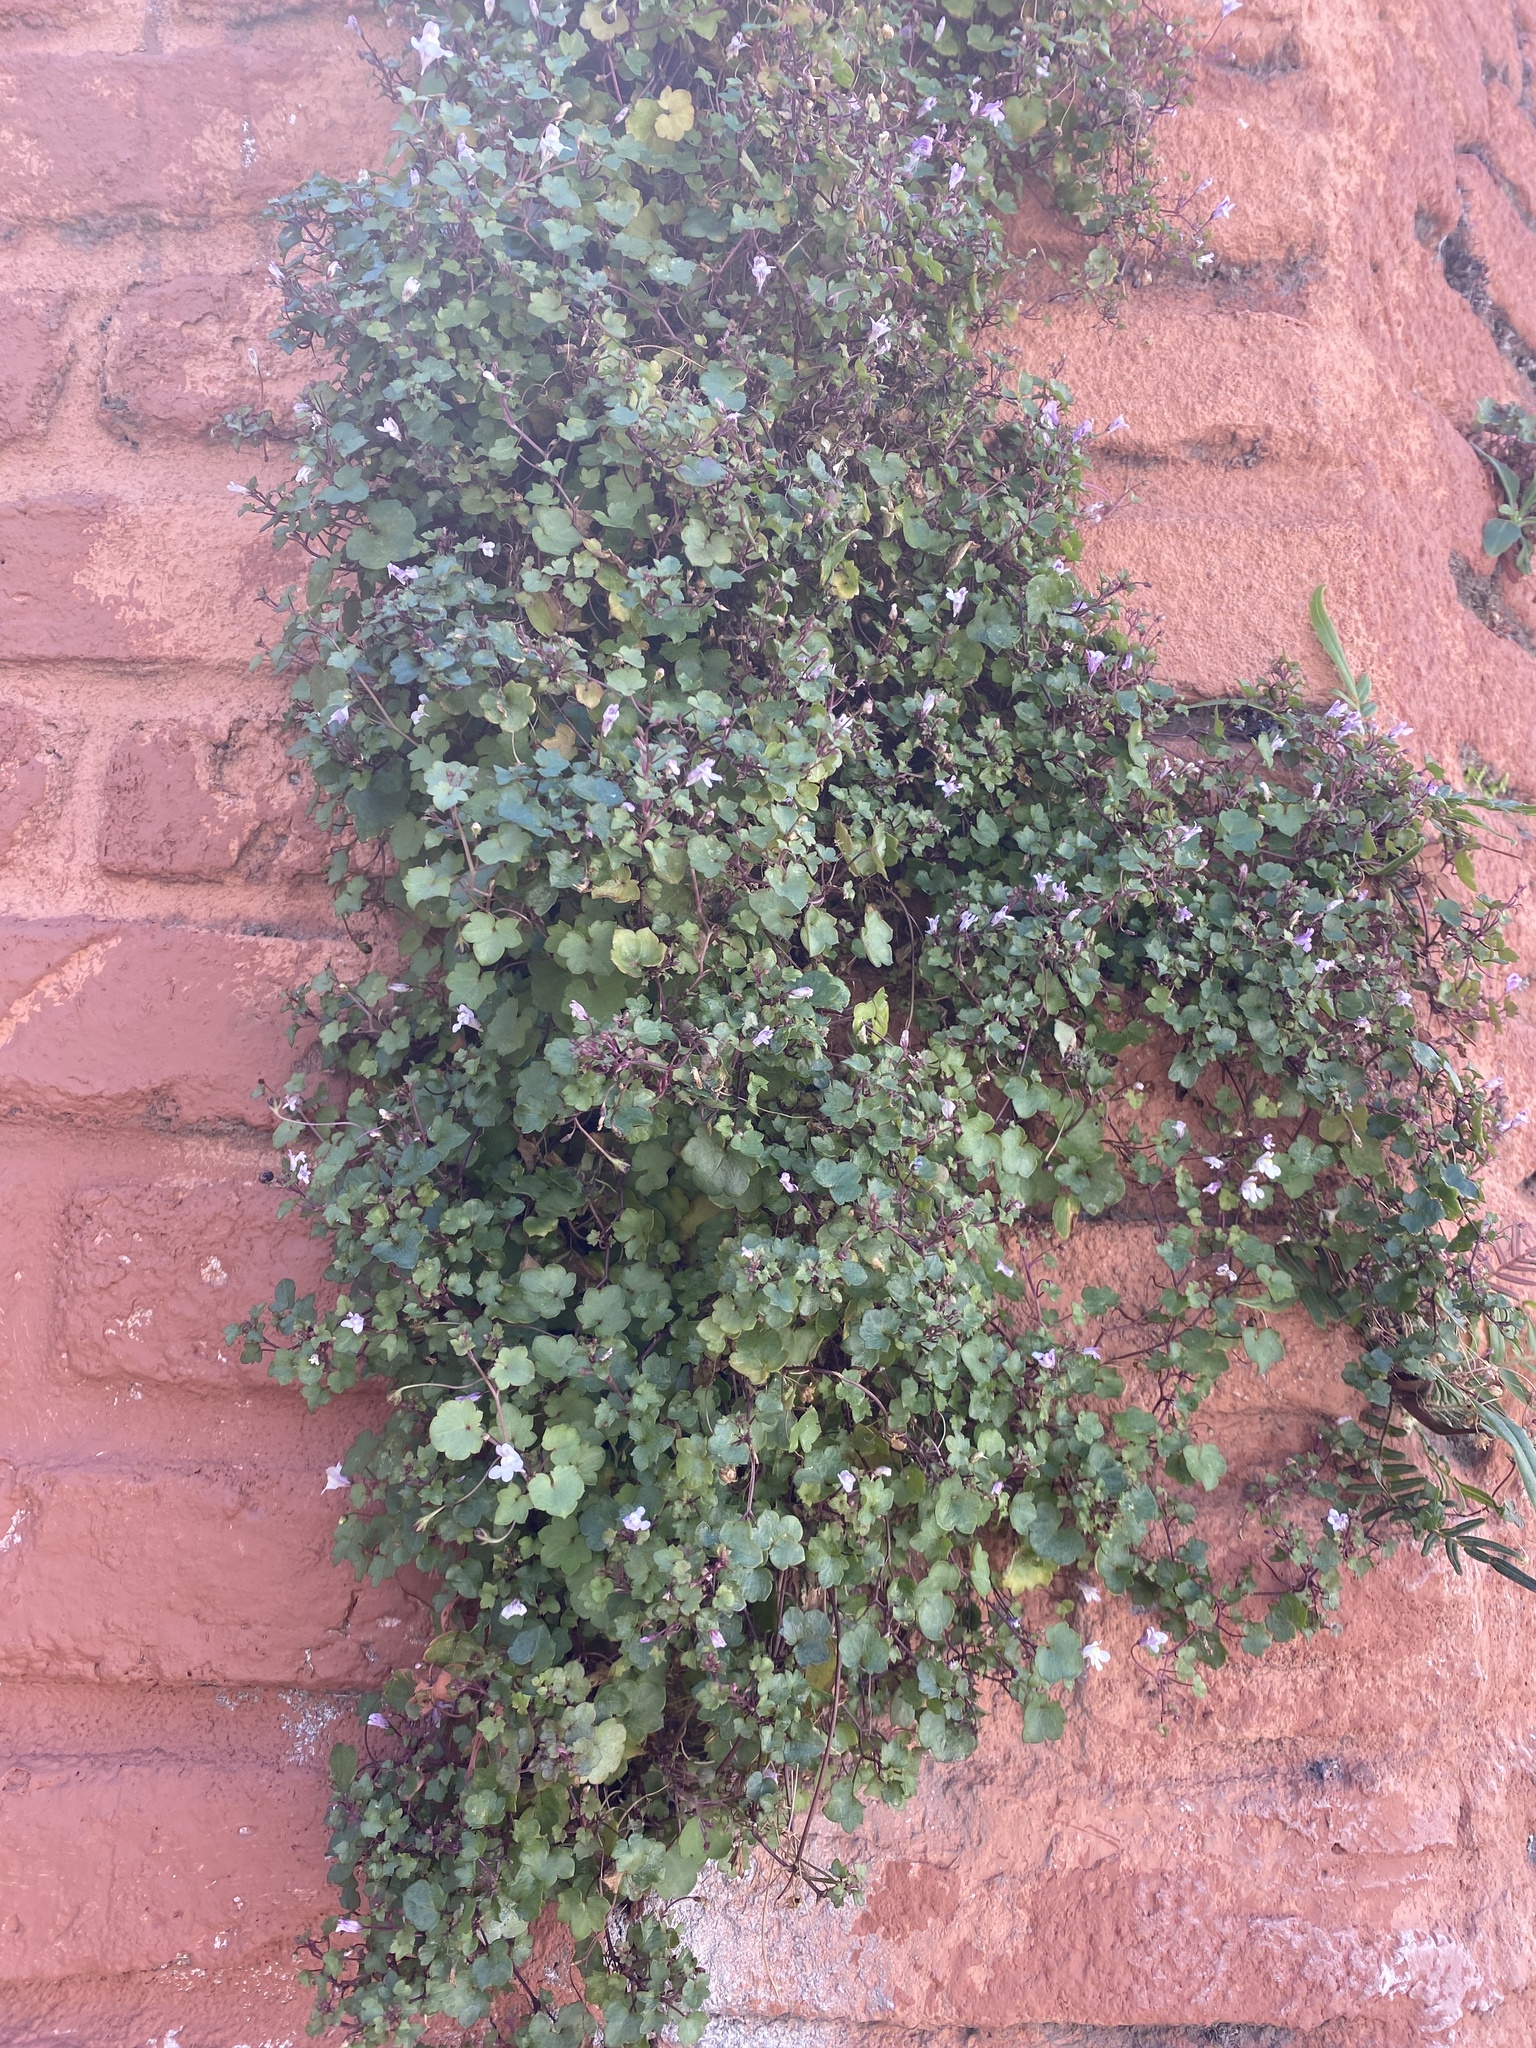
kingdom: Plantae
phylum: Tracheophyta
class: Magnoliopsida
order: Lamiales
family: Plantaginaceae
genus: Cymbalaria
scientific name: Cymbalaria muralis
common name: Ivy-leaved toadflax
